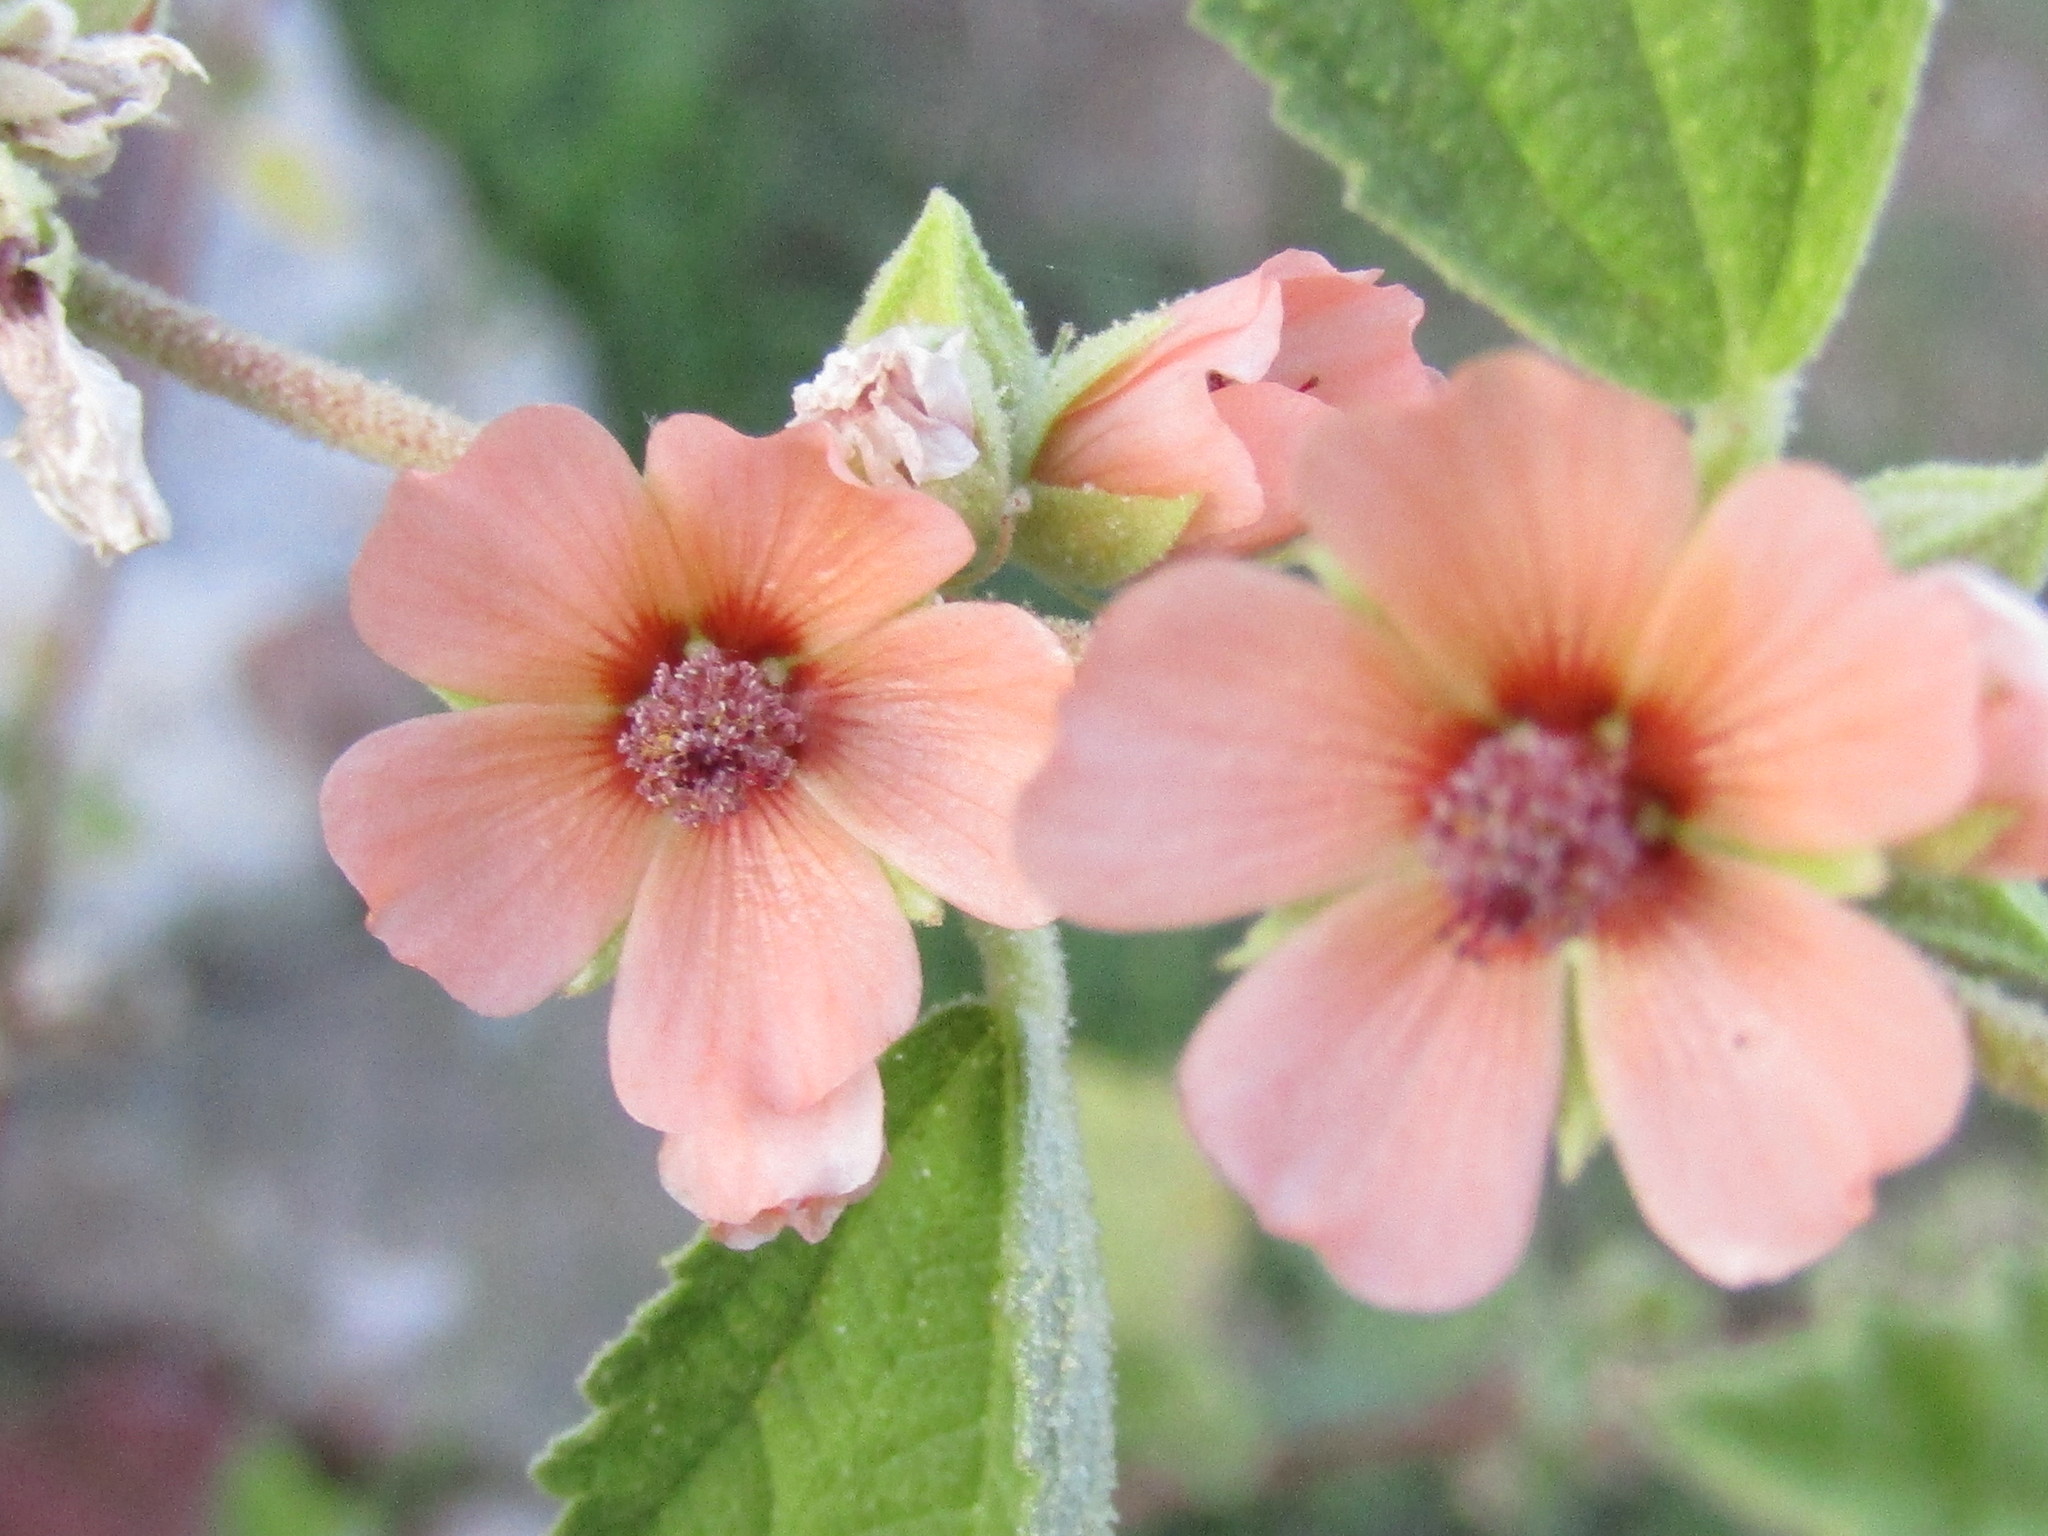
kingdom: Plantae
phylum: Tracheophyta
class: Magnoliopsida
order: Malvales
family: Malvaceae
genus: Sphaeralcea
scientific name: Sphaeralcea bonariensis
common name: Latin globemallow
